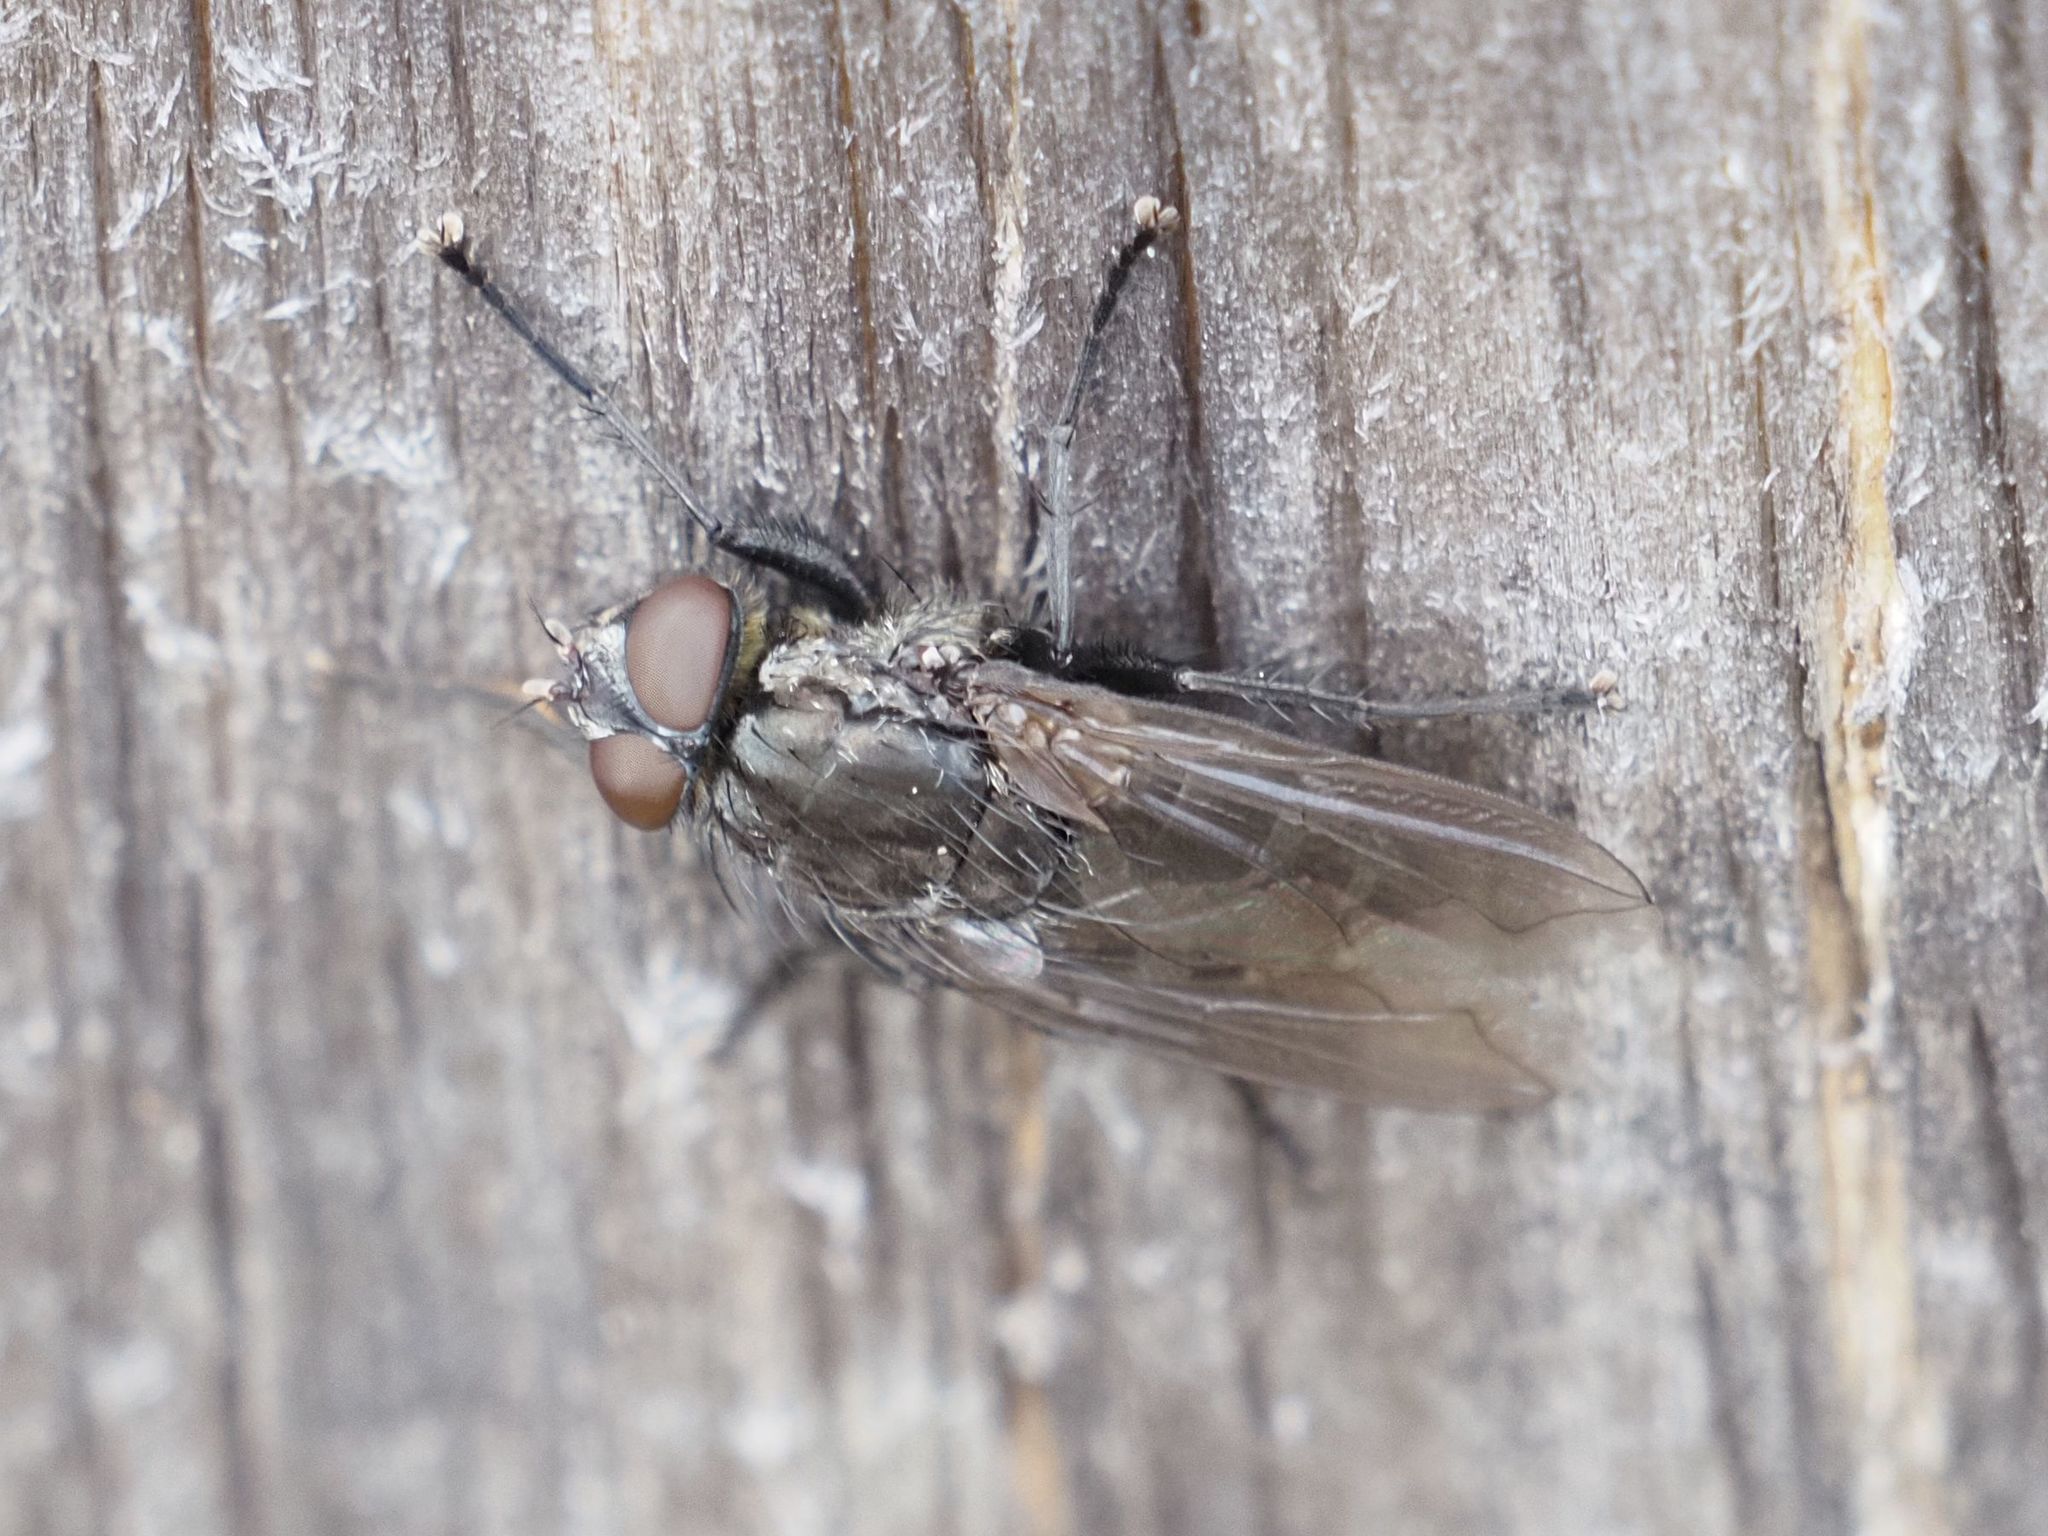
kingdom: Animalia
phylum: Arthropoda
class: Insecta
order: Diptera
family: Polleniidae
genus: Pollenia
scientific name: Pollenia vagabunda
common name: Vagabund cluster fly
